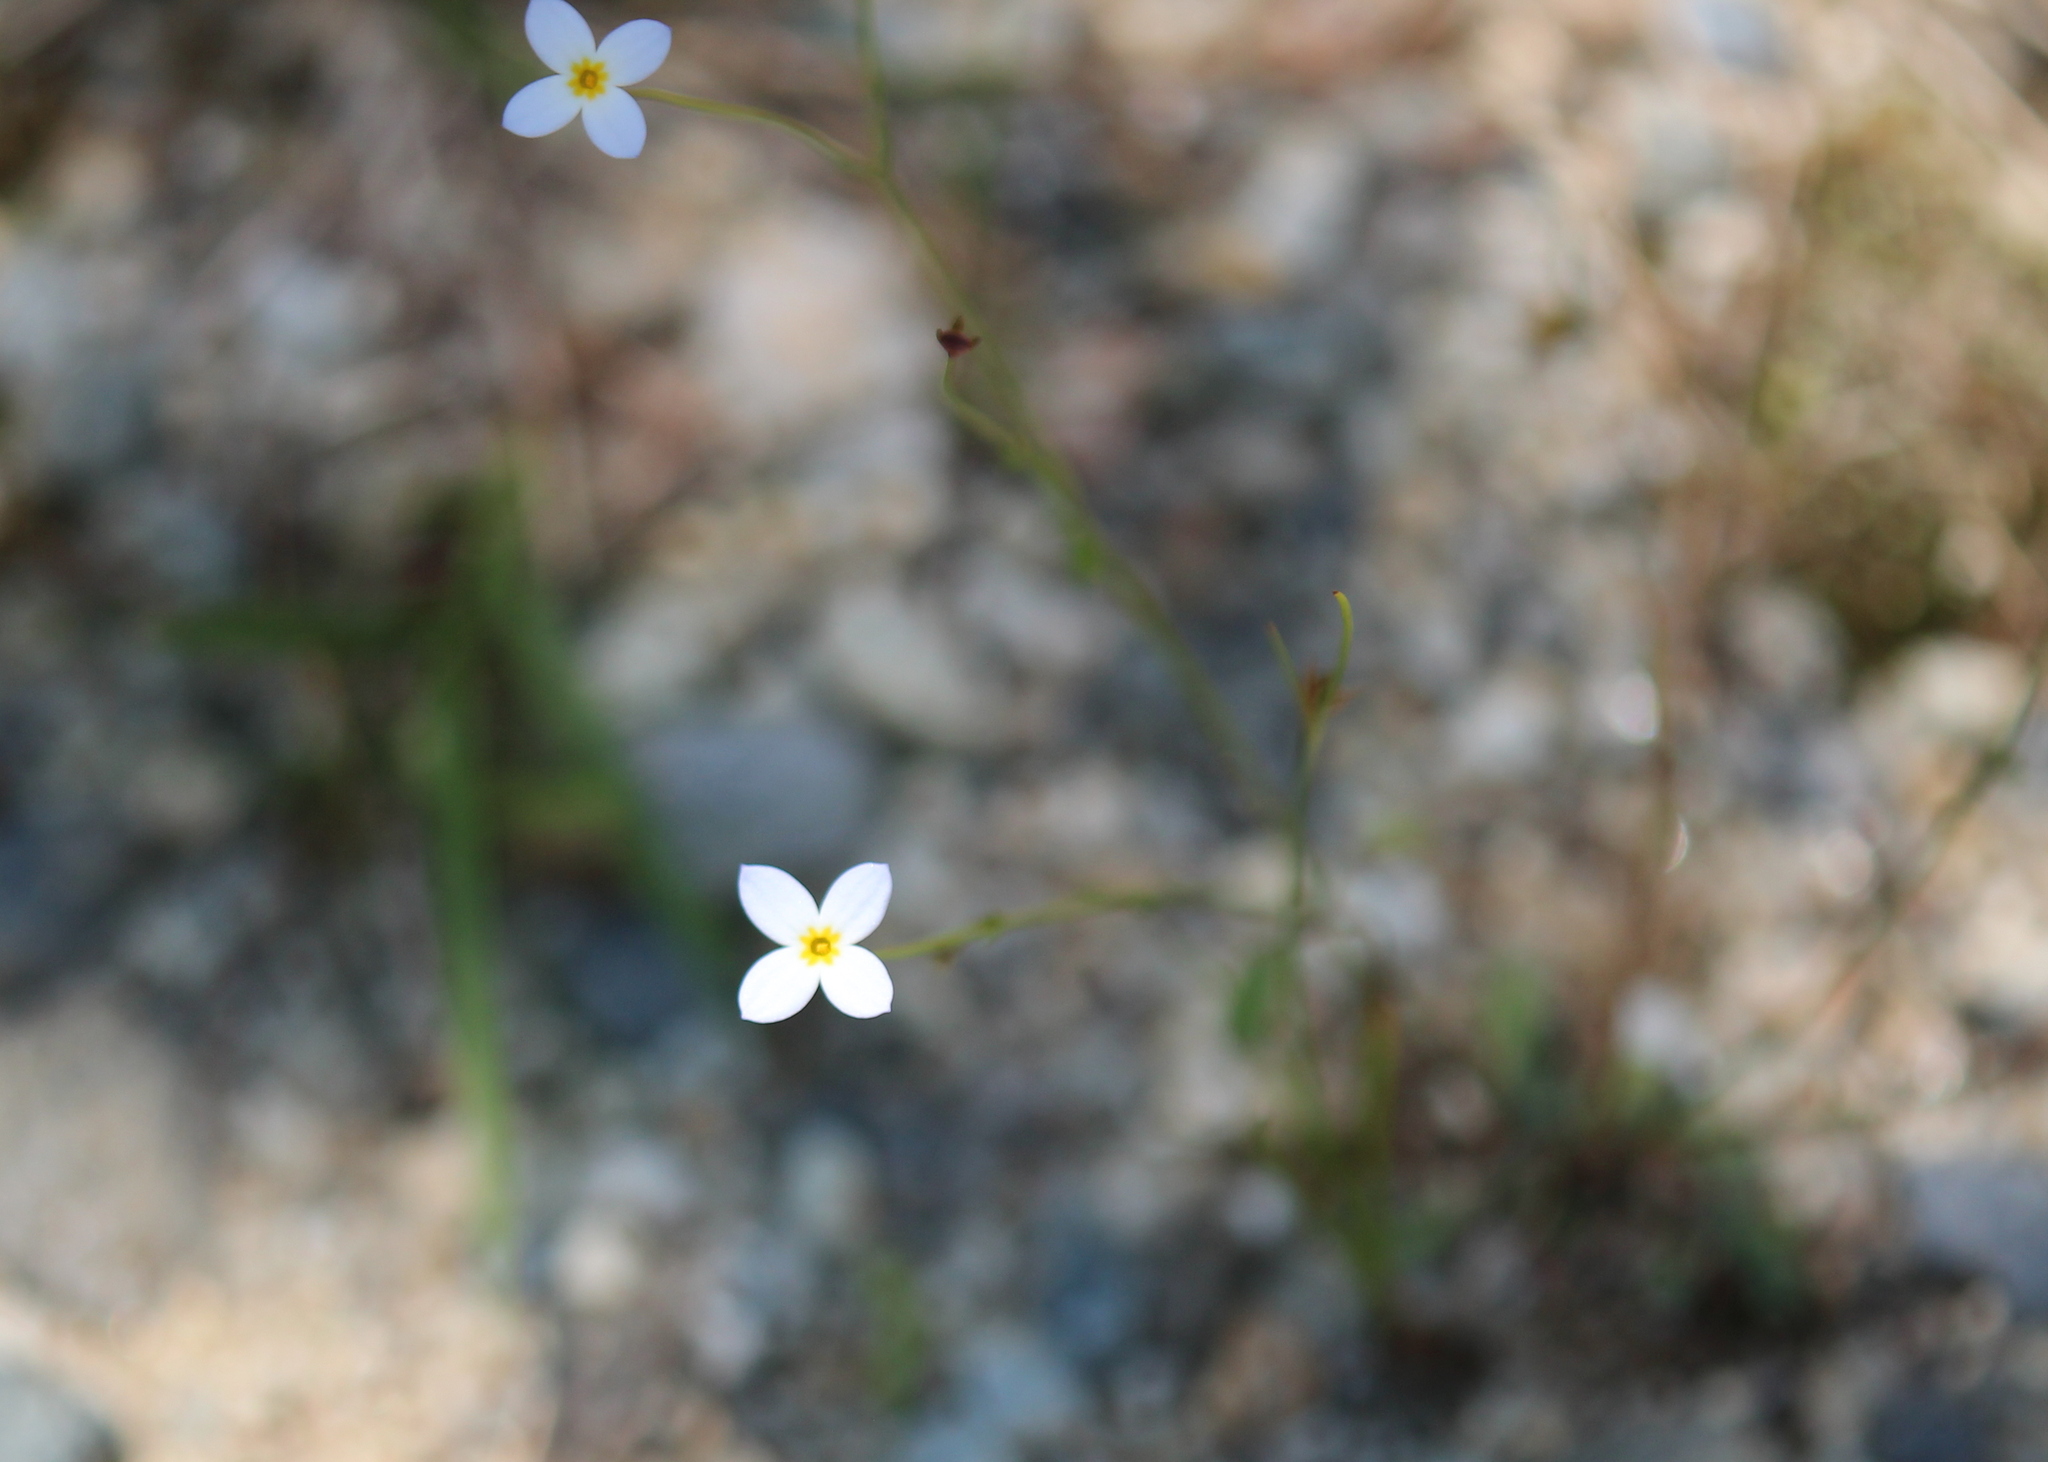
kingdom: Plantae
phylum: Tracheophyta
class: Magnoliopsida
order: Gentianales
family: Rubiaceae
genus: Houstonia
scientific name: Houstonia caerulea
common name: Bluets
